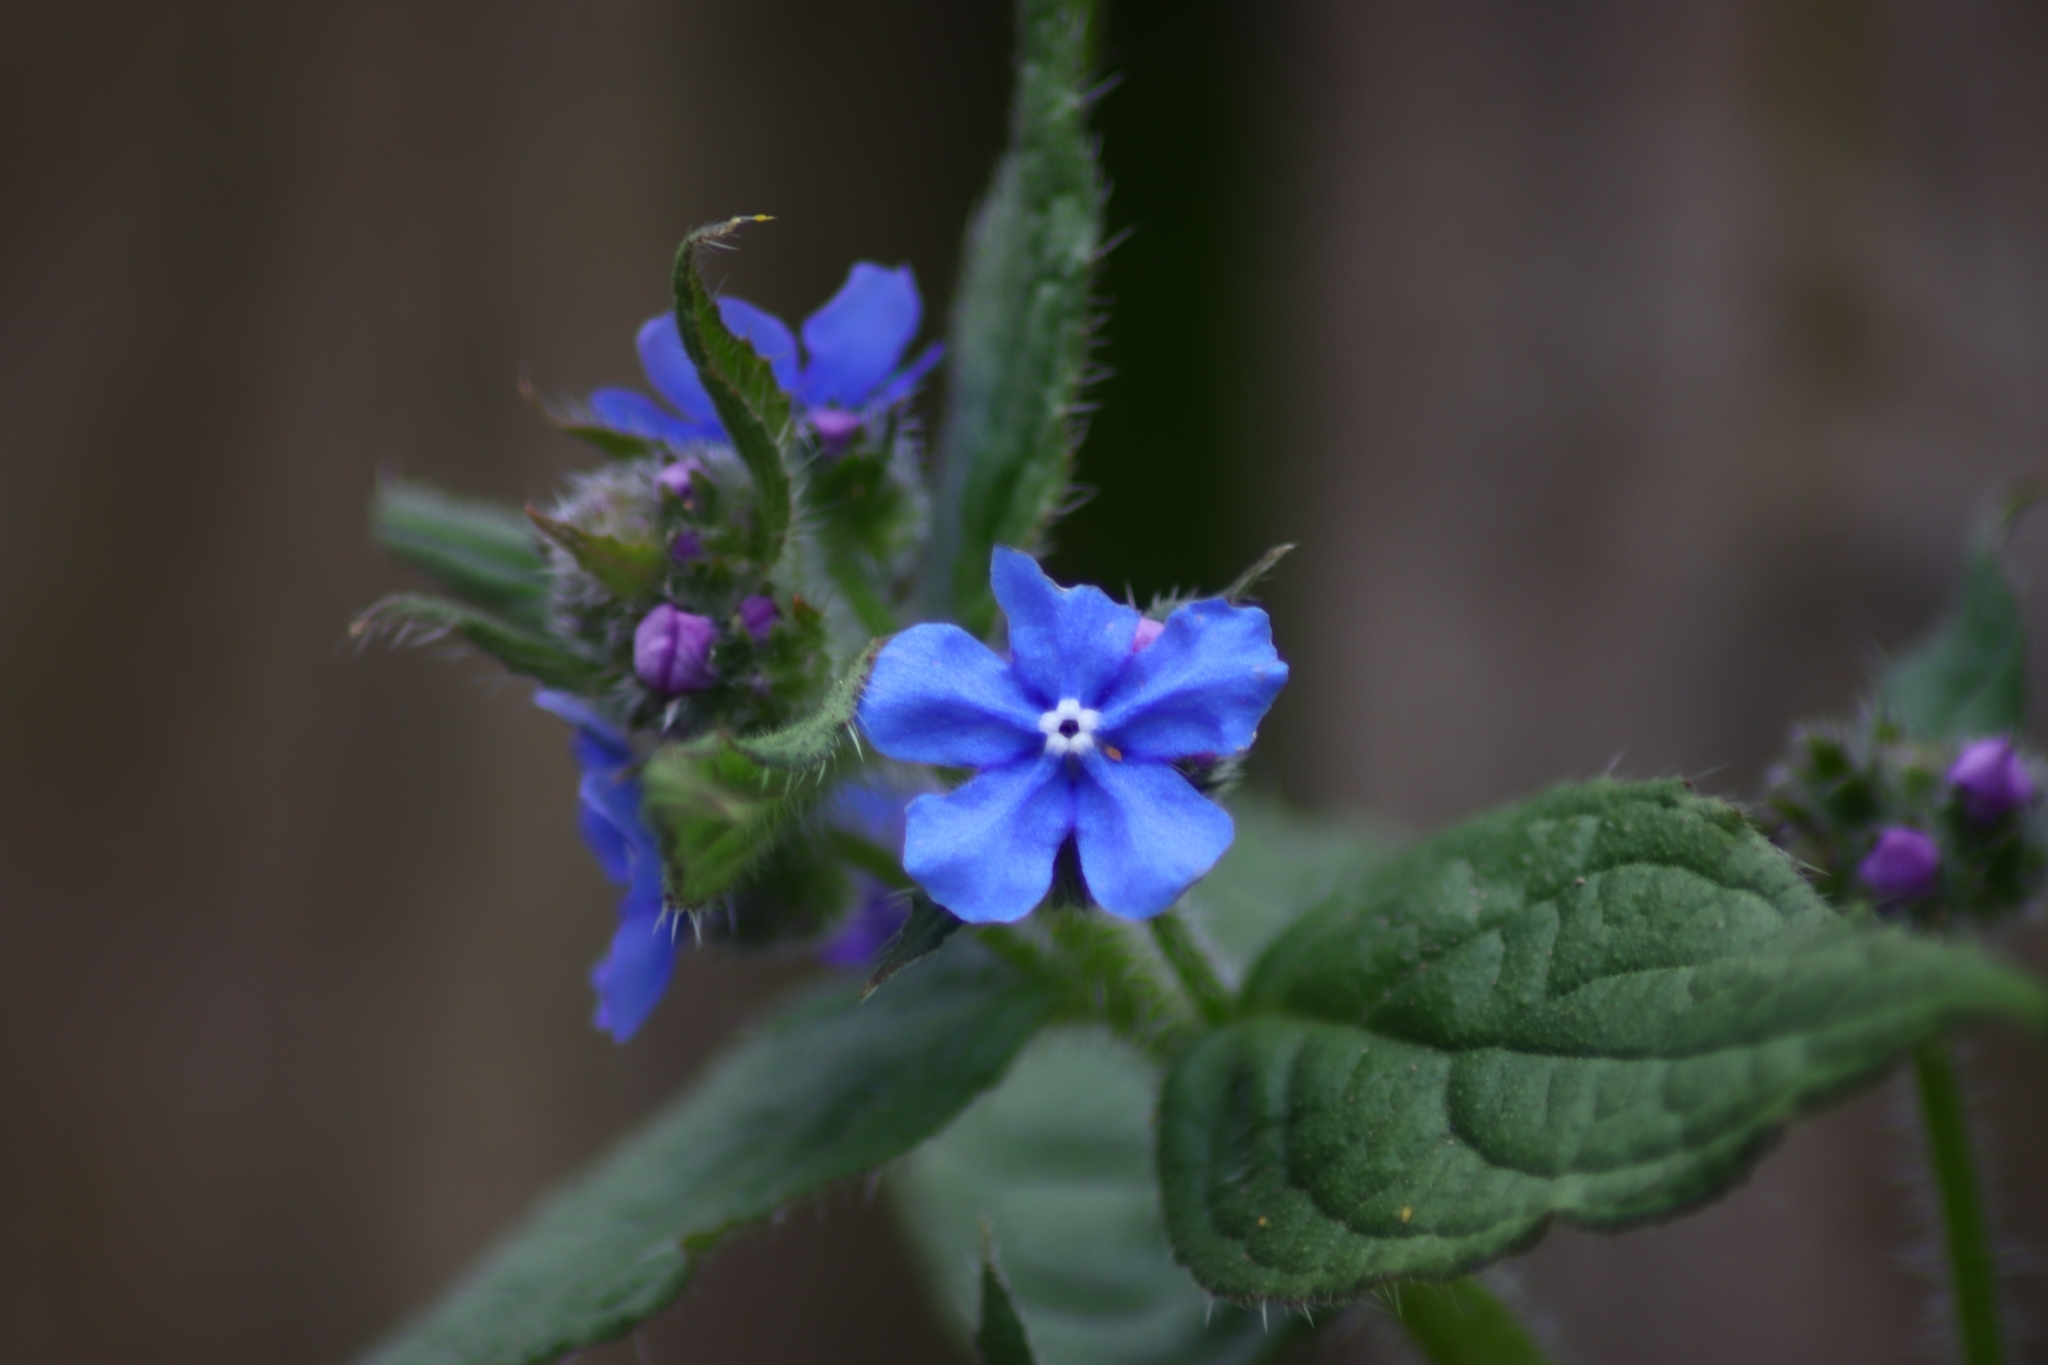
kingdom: Plantae
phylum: Tracheophyta
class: Magnoliopsida
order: Boraginales
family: Boraginaceae
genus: Pentaglottis
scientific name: Pentaglottis sempervirens
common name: Green alkanet
